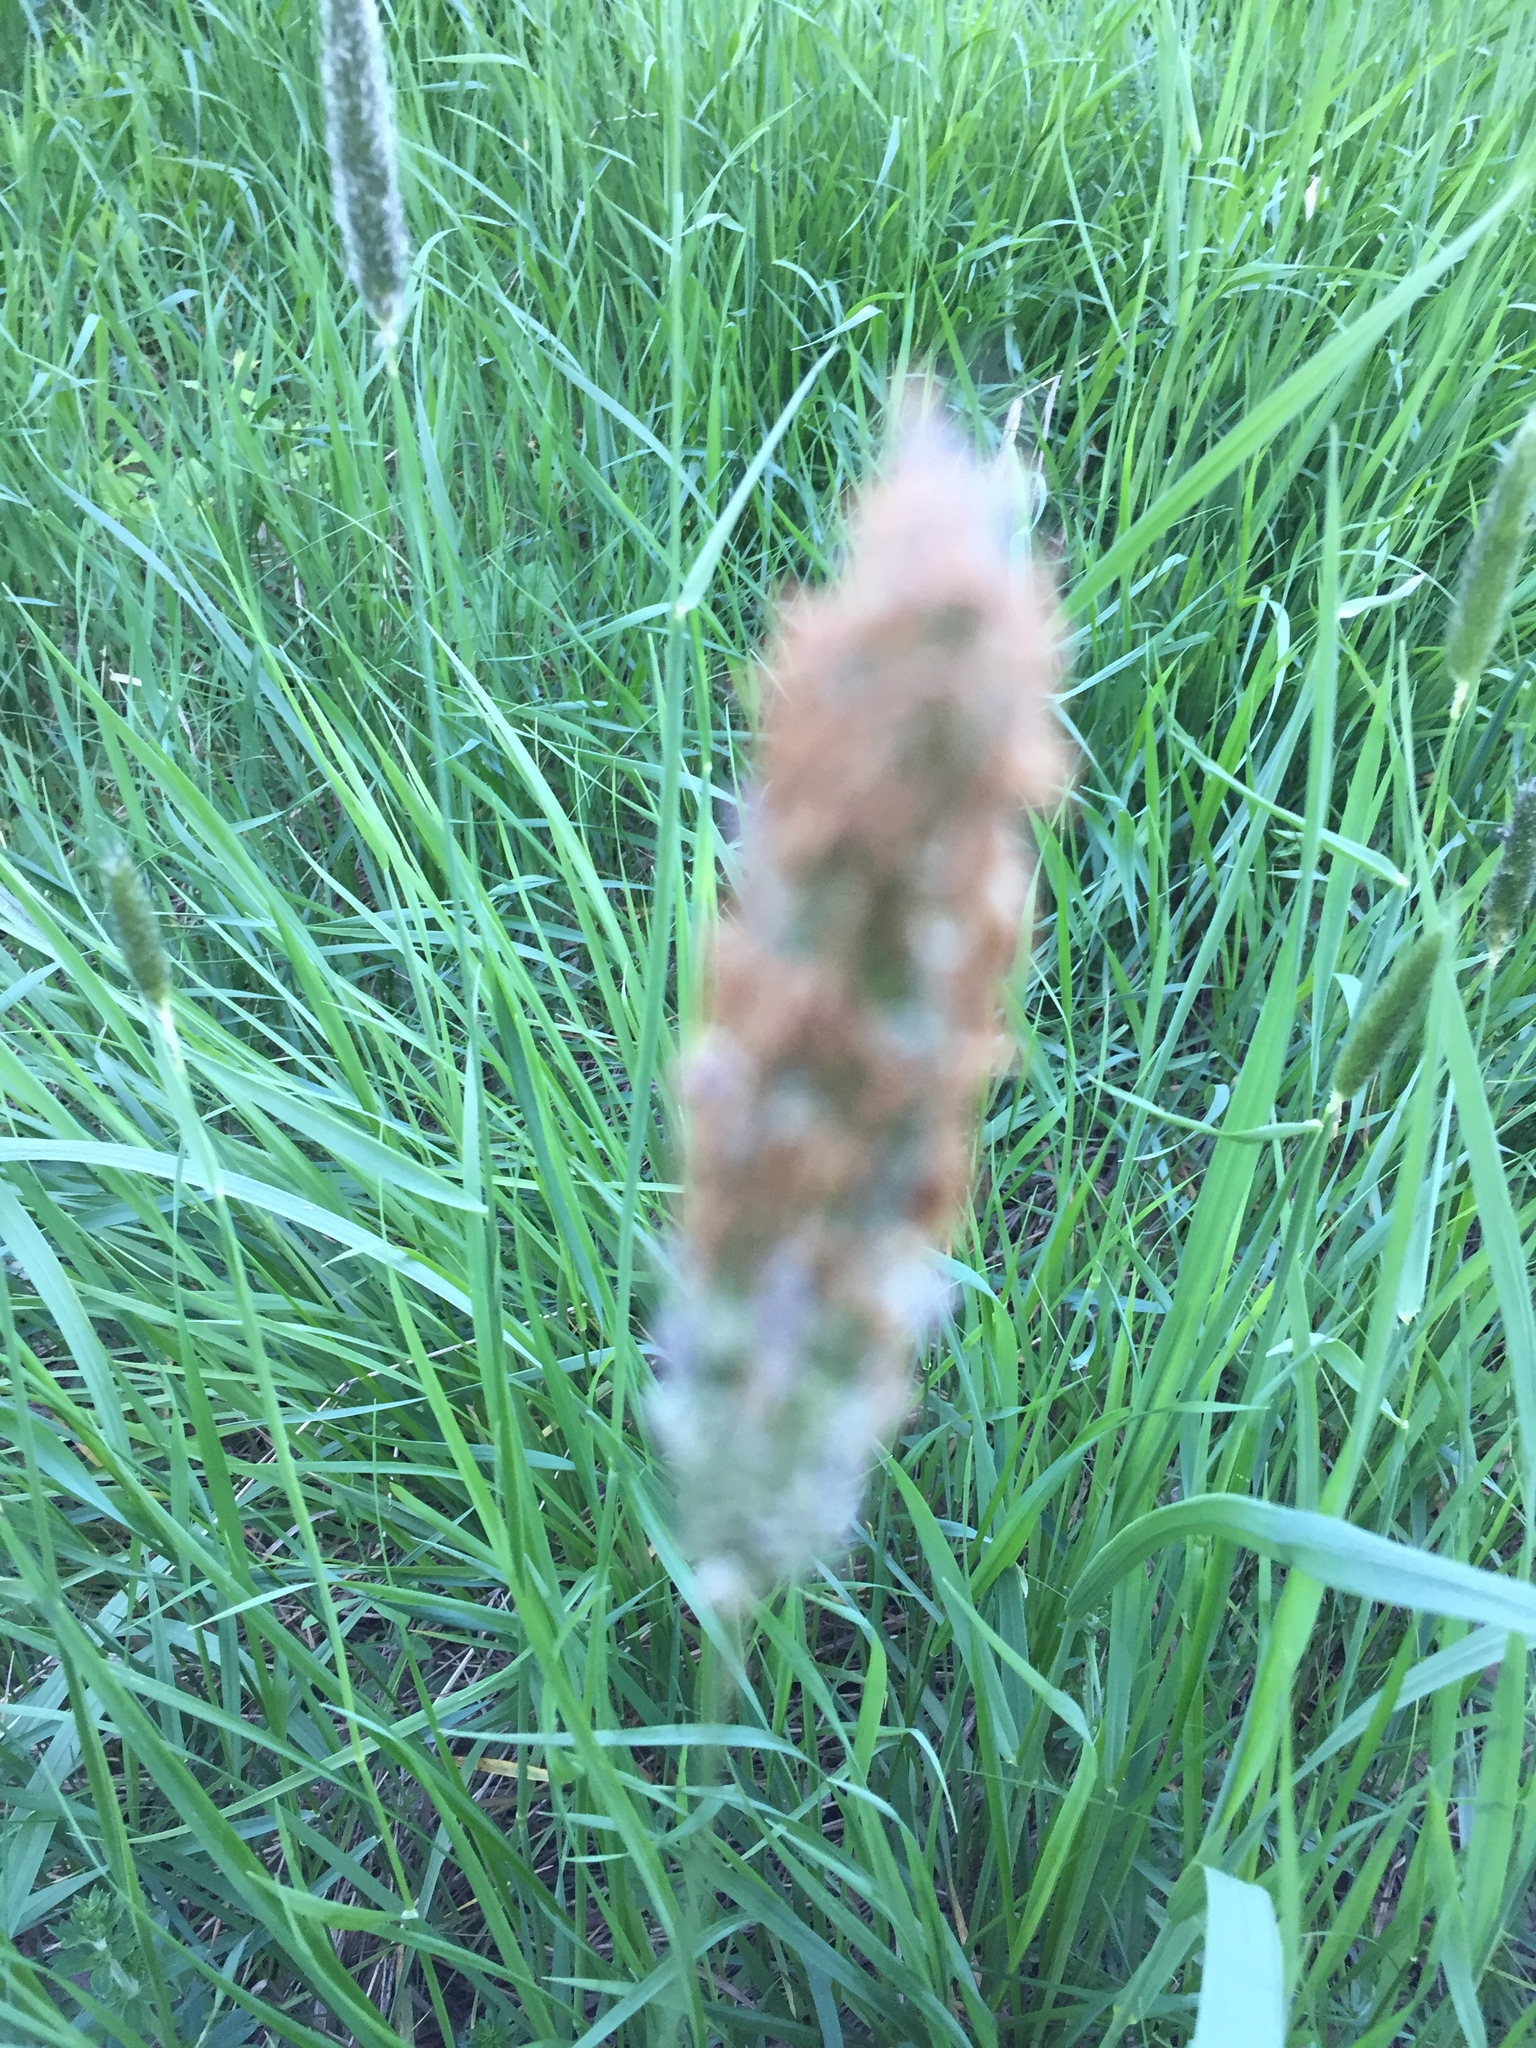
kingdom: Plantae
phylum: Tracheophyta
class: Liliopsida
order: Poales
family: Poaceae
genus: Alopecurus
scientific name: Alopecurus pratensis
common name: Meadow foxtail
